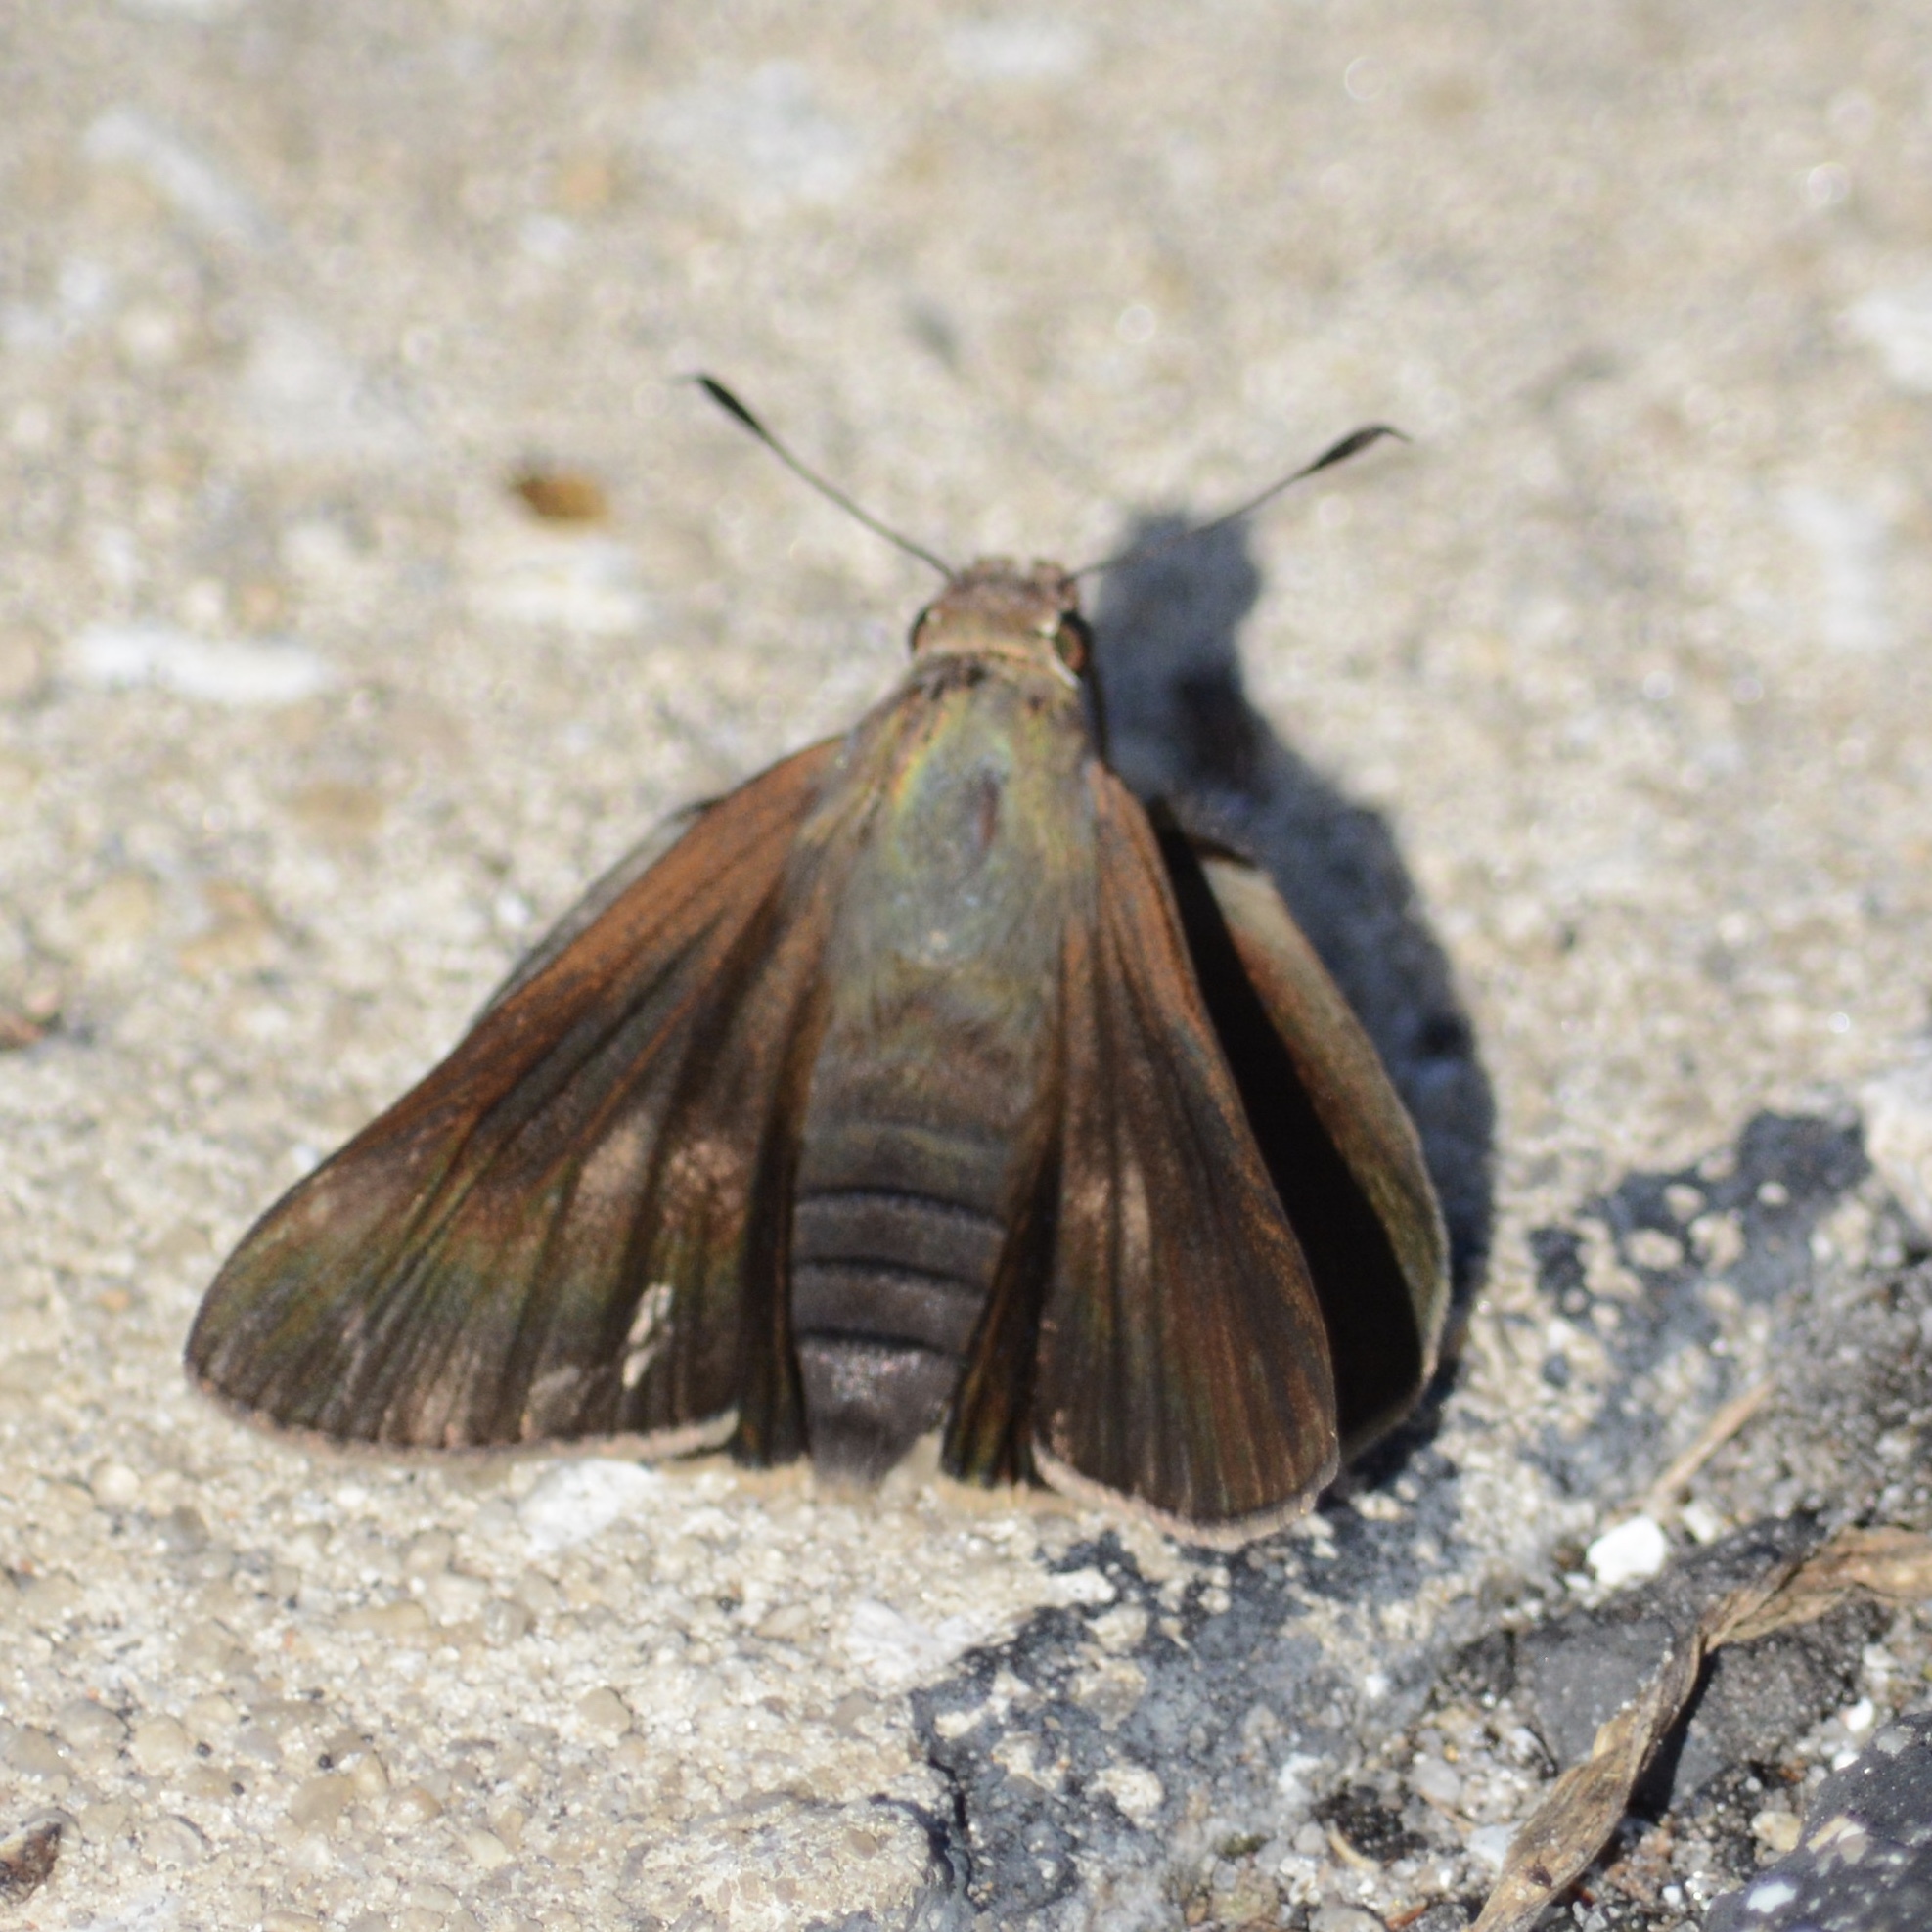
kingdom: Animalia
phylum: Arthropoda
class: Insecta
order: Lepidoptera
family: Hesperiidae
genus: Asbolis
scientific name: Asbolis capucinus
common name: Monk skipper
